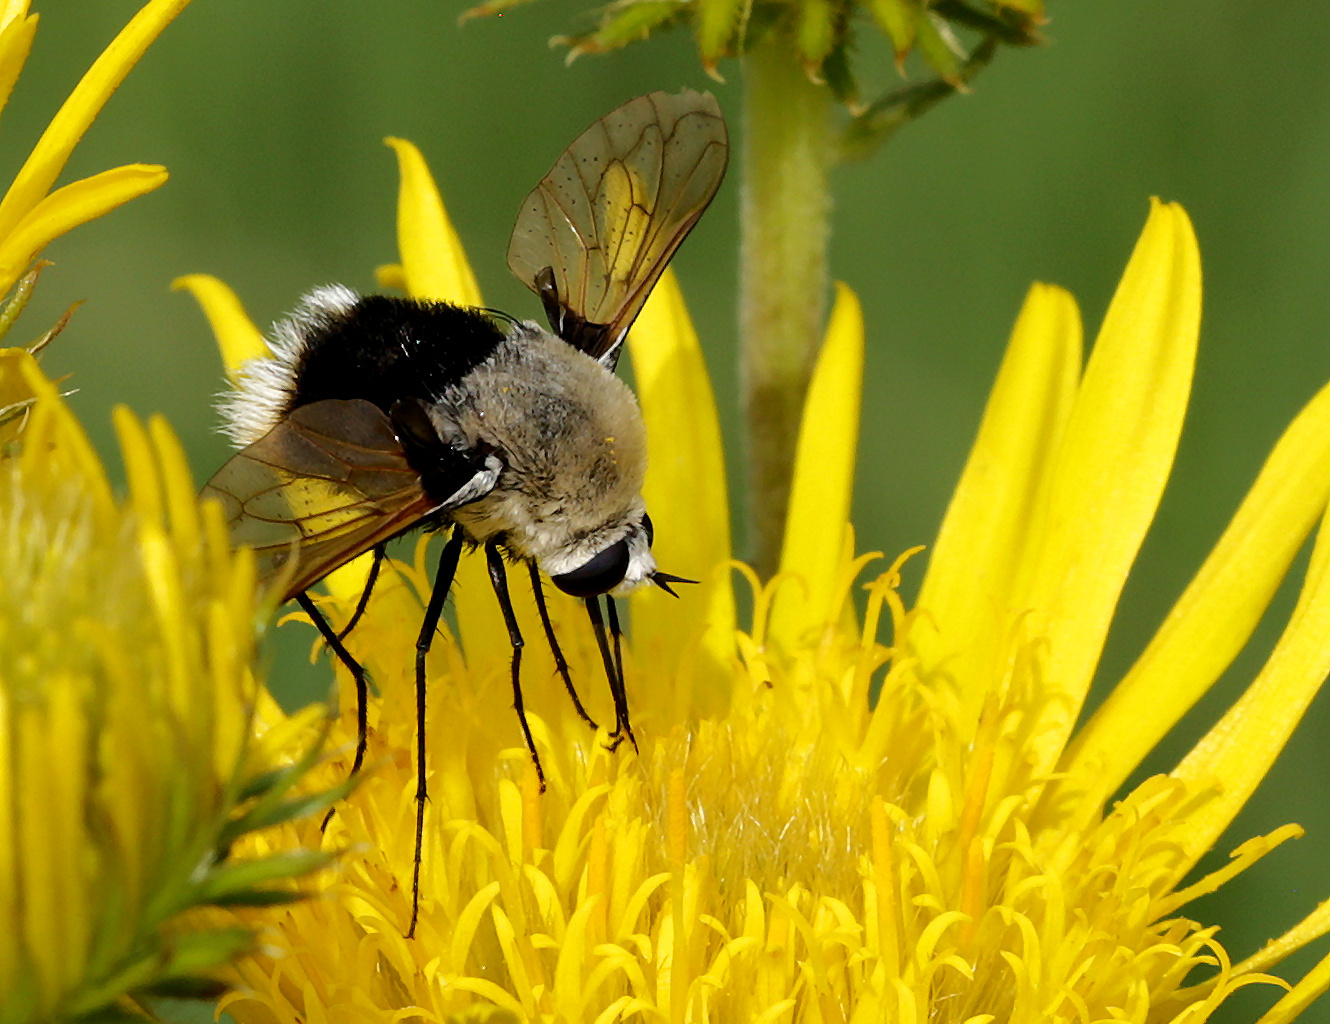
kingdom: Animalia
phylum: Arthropoda
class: Insecta
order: Diptera
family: Bombyliidae
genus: Bombomyia
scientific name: Bombomyia discoidea
